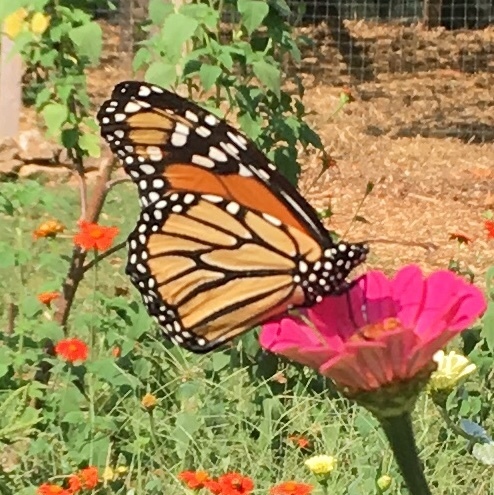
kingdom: Animalia
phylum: Arthropoda
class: Insecta
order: Lepidoptera
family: Nymphalidae
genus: Danaus
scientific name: Danaus plexippus
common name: Monarch
